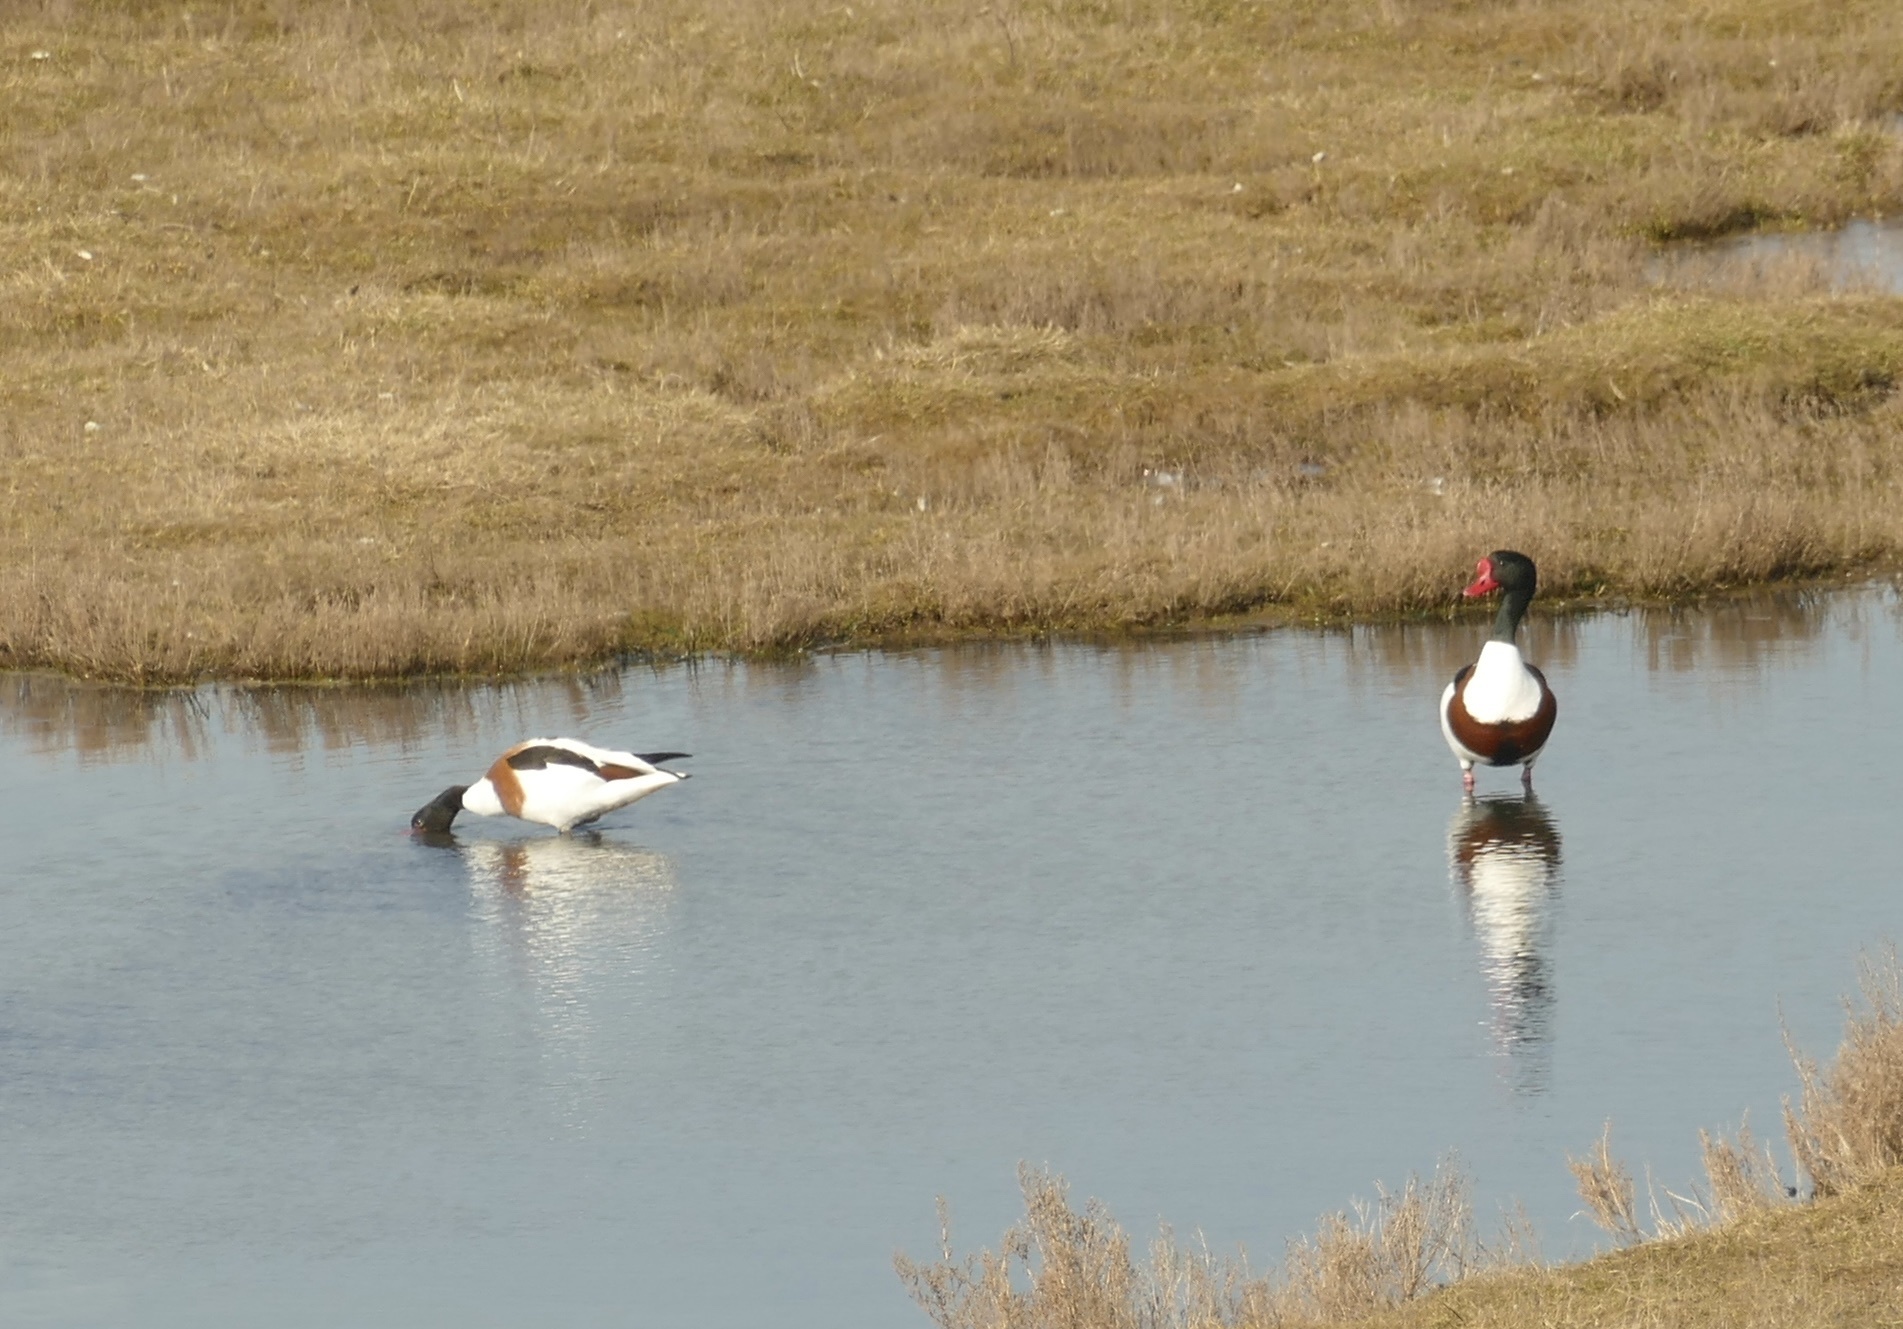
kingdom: Animalia
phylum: Chordata
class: Aves
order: Anseriformes
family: Anatidae
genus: Tadorna
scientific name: Tadorna tadorna
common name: Common shelduck
